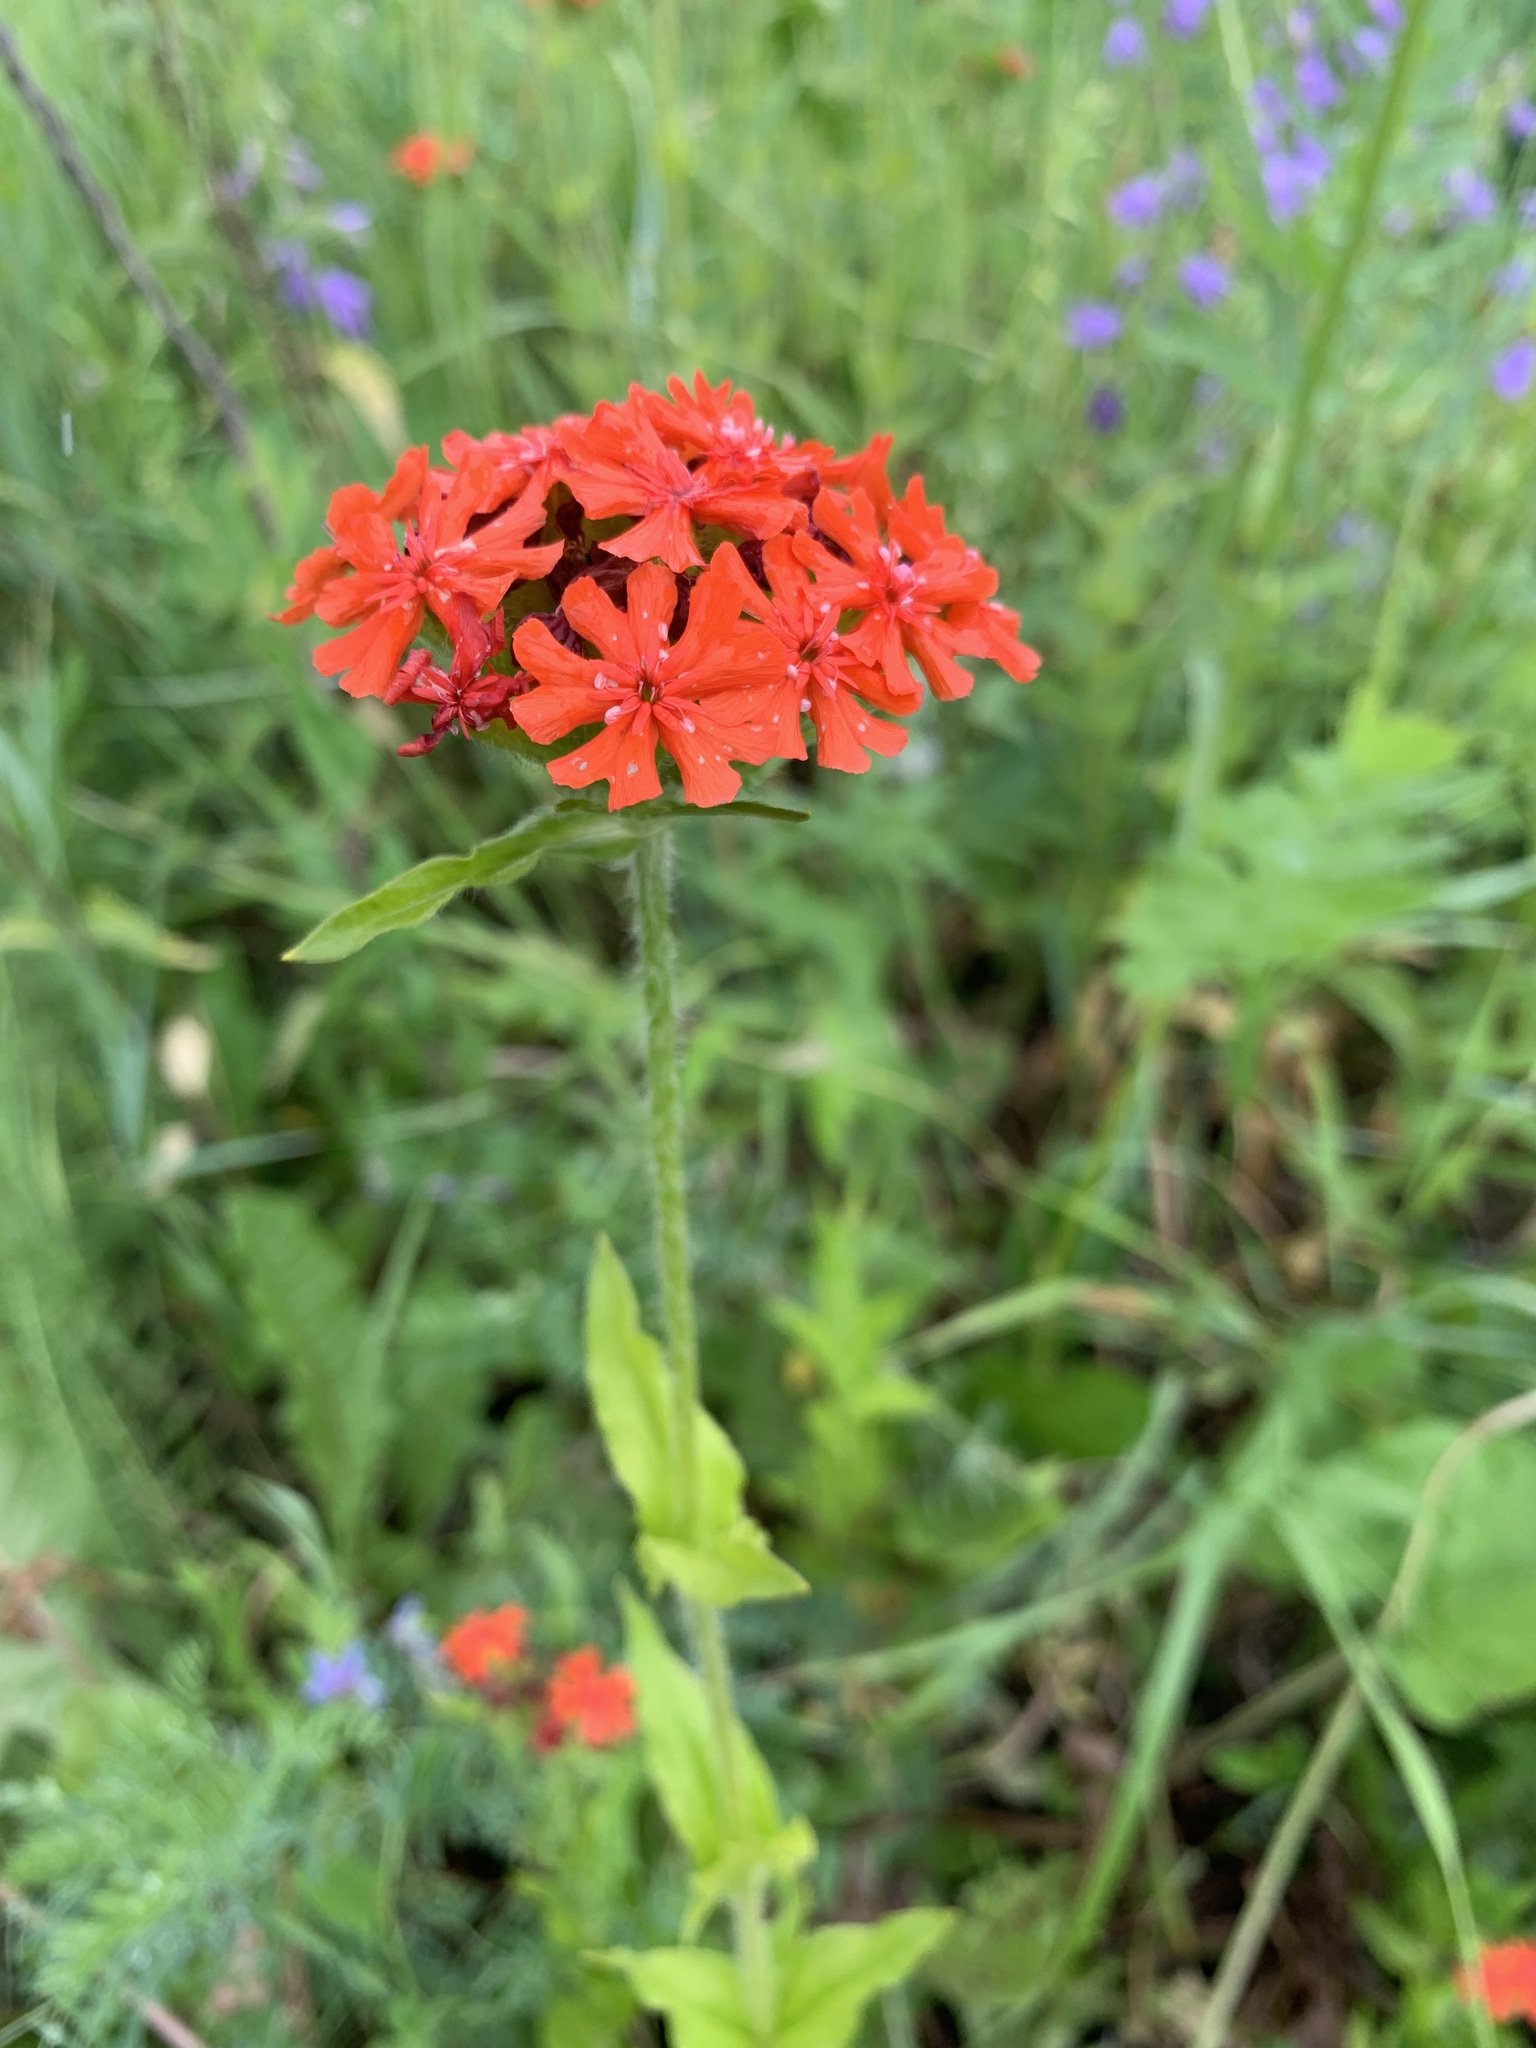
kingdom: Plantae
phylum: Tracheophyta
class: Magnoliopsida
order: Caryophyllales
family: Caryophyllaceae
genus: Silene
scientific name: Silene chalcedonica
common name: Maltese-cross
